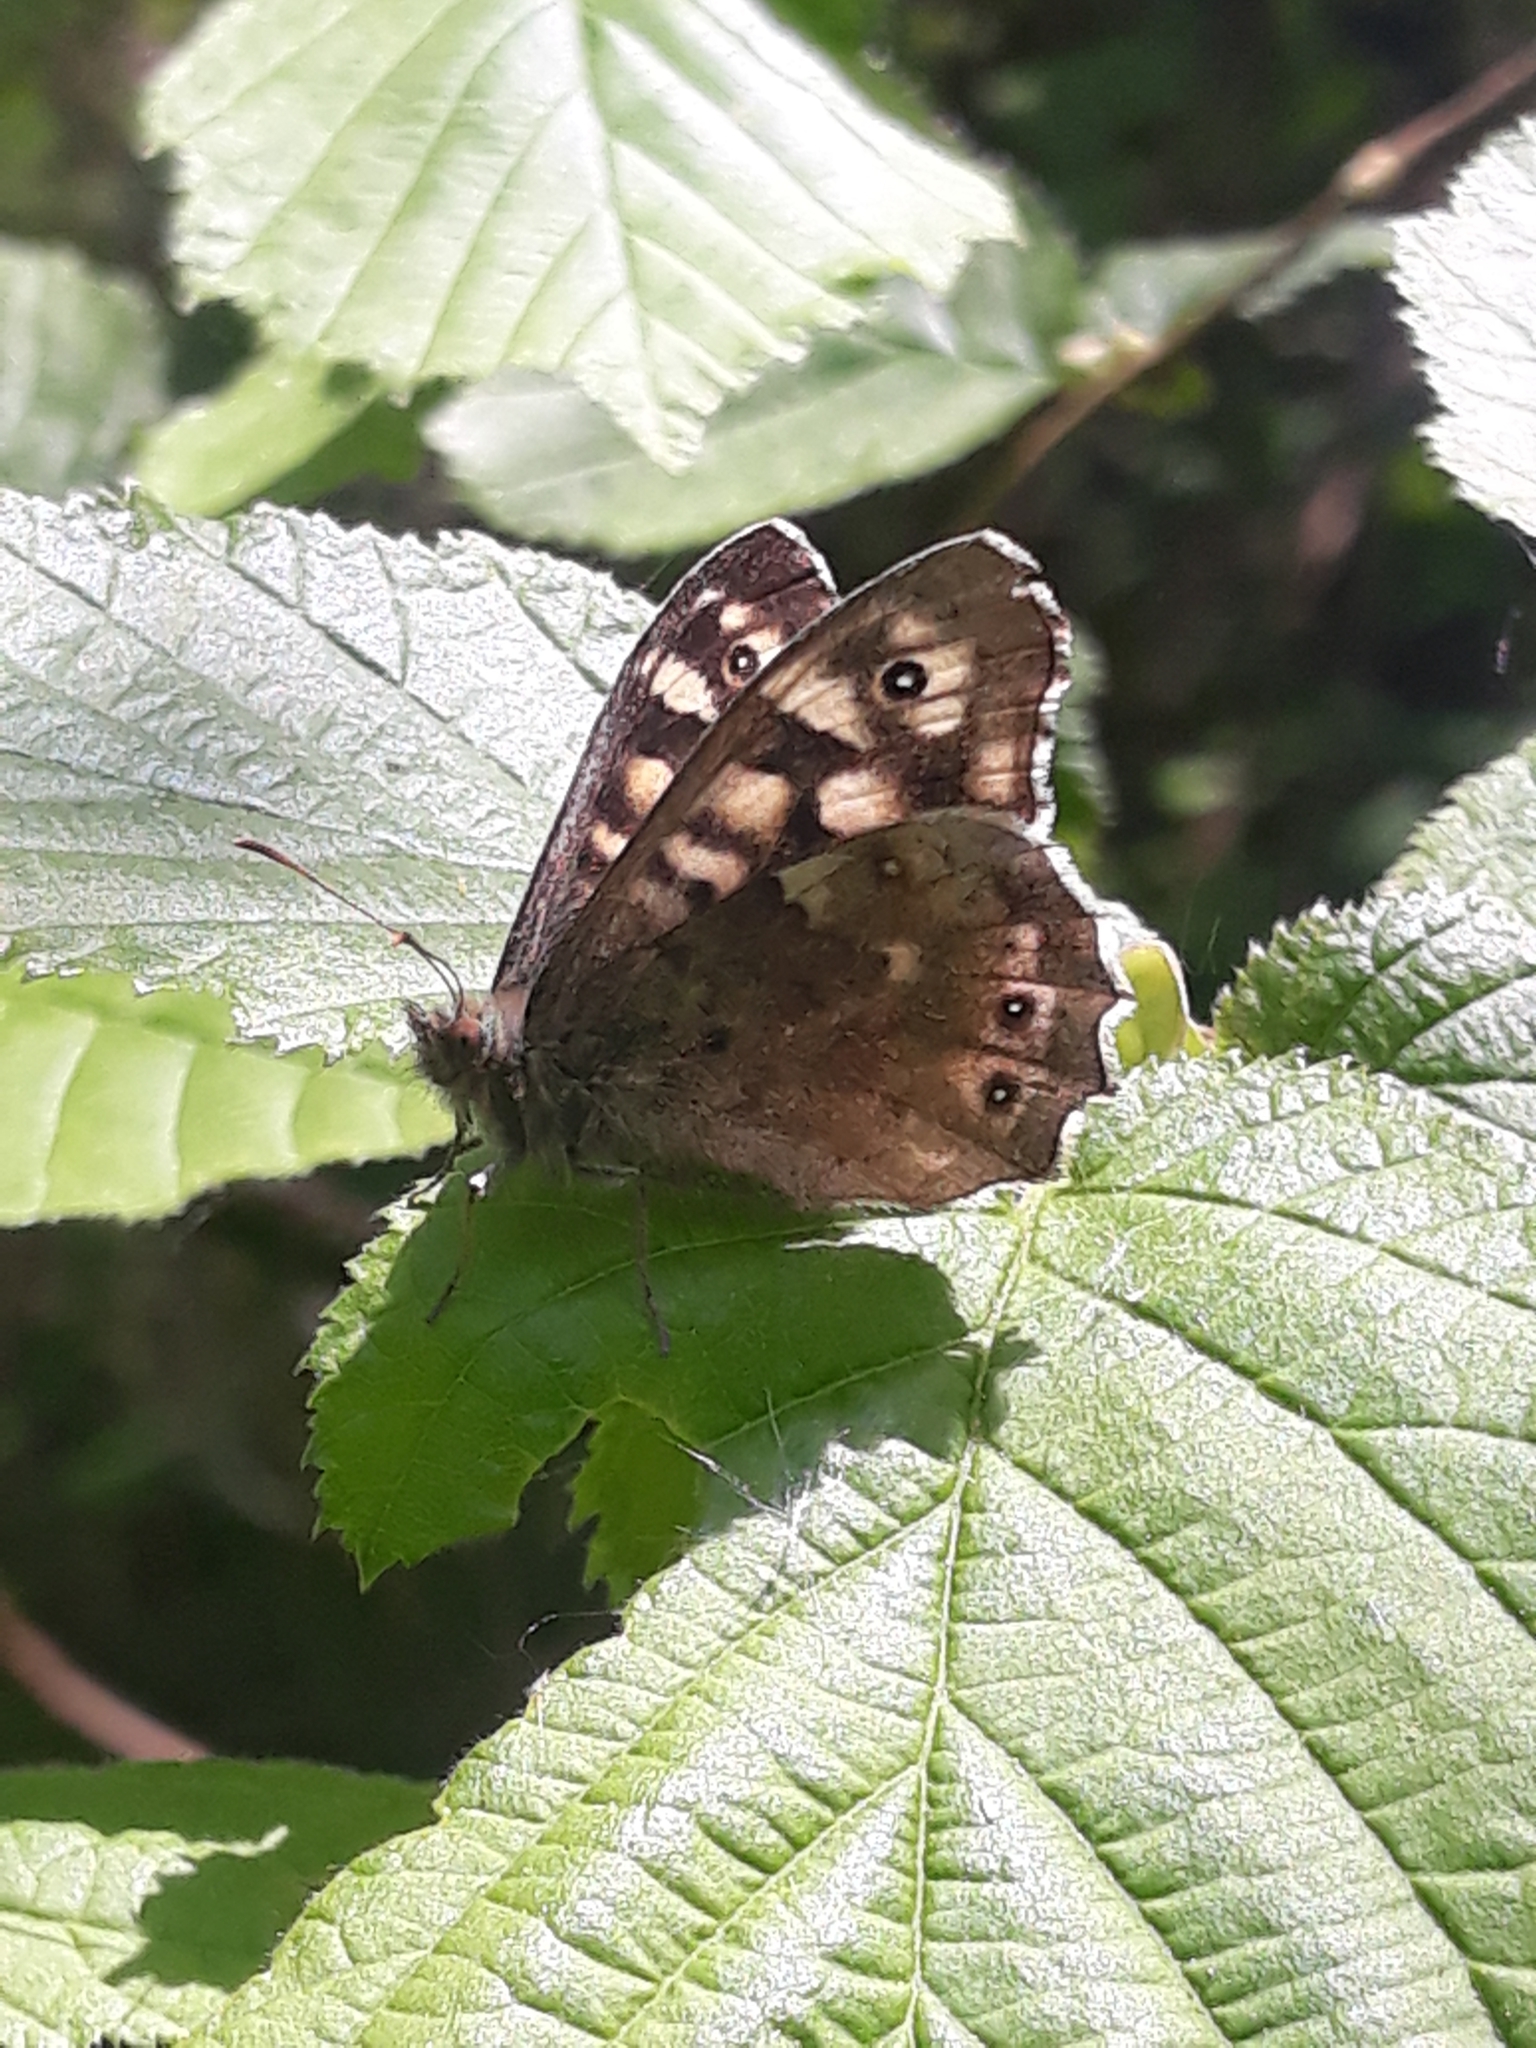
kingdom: Animalia
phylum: Arthropoda
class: Insecta
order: Lepidoptera
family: Nymphalidae
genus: Pararge
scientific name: Pararge aegeria
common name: Speckled wood
